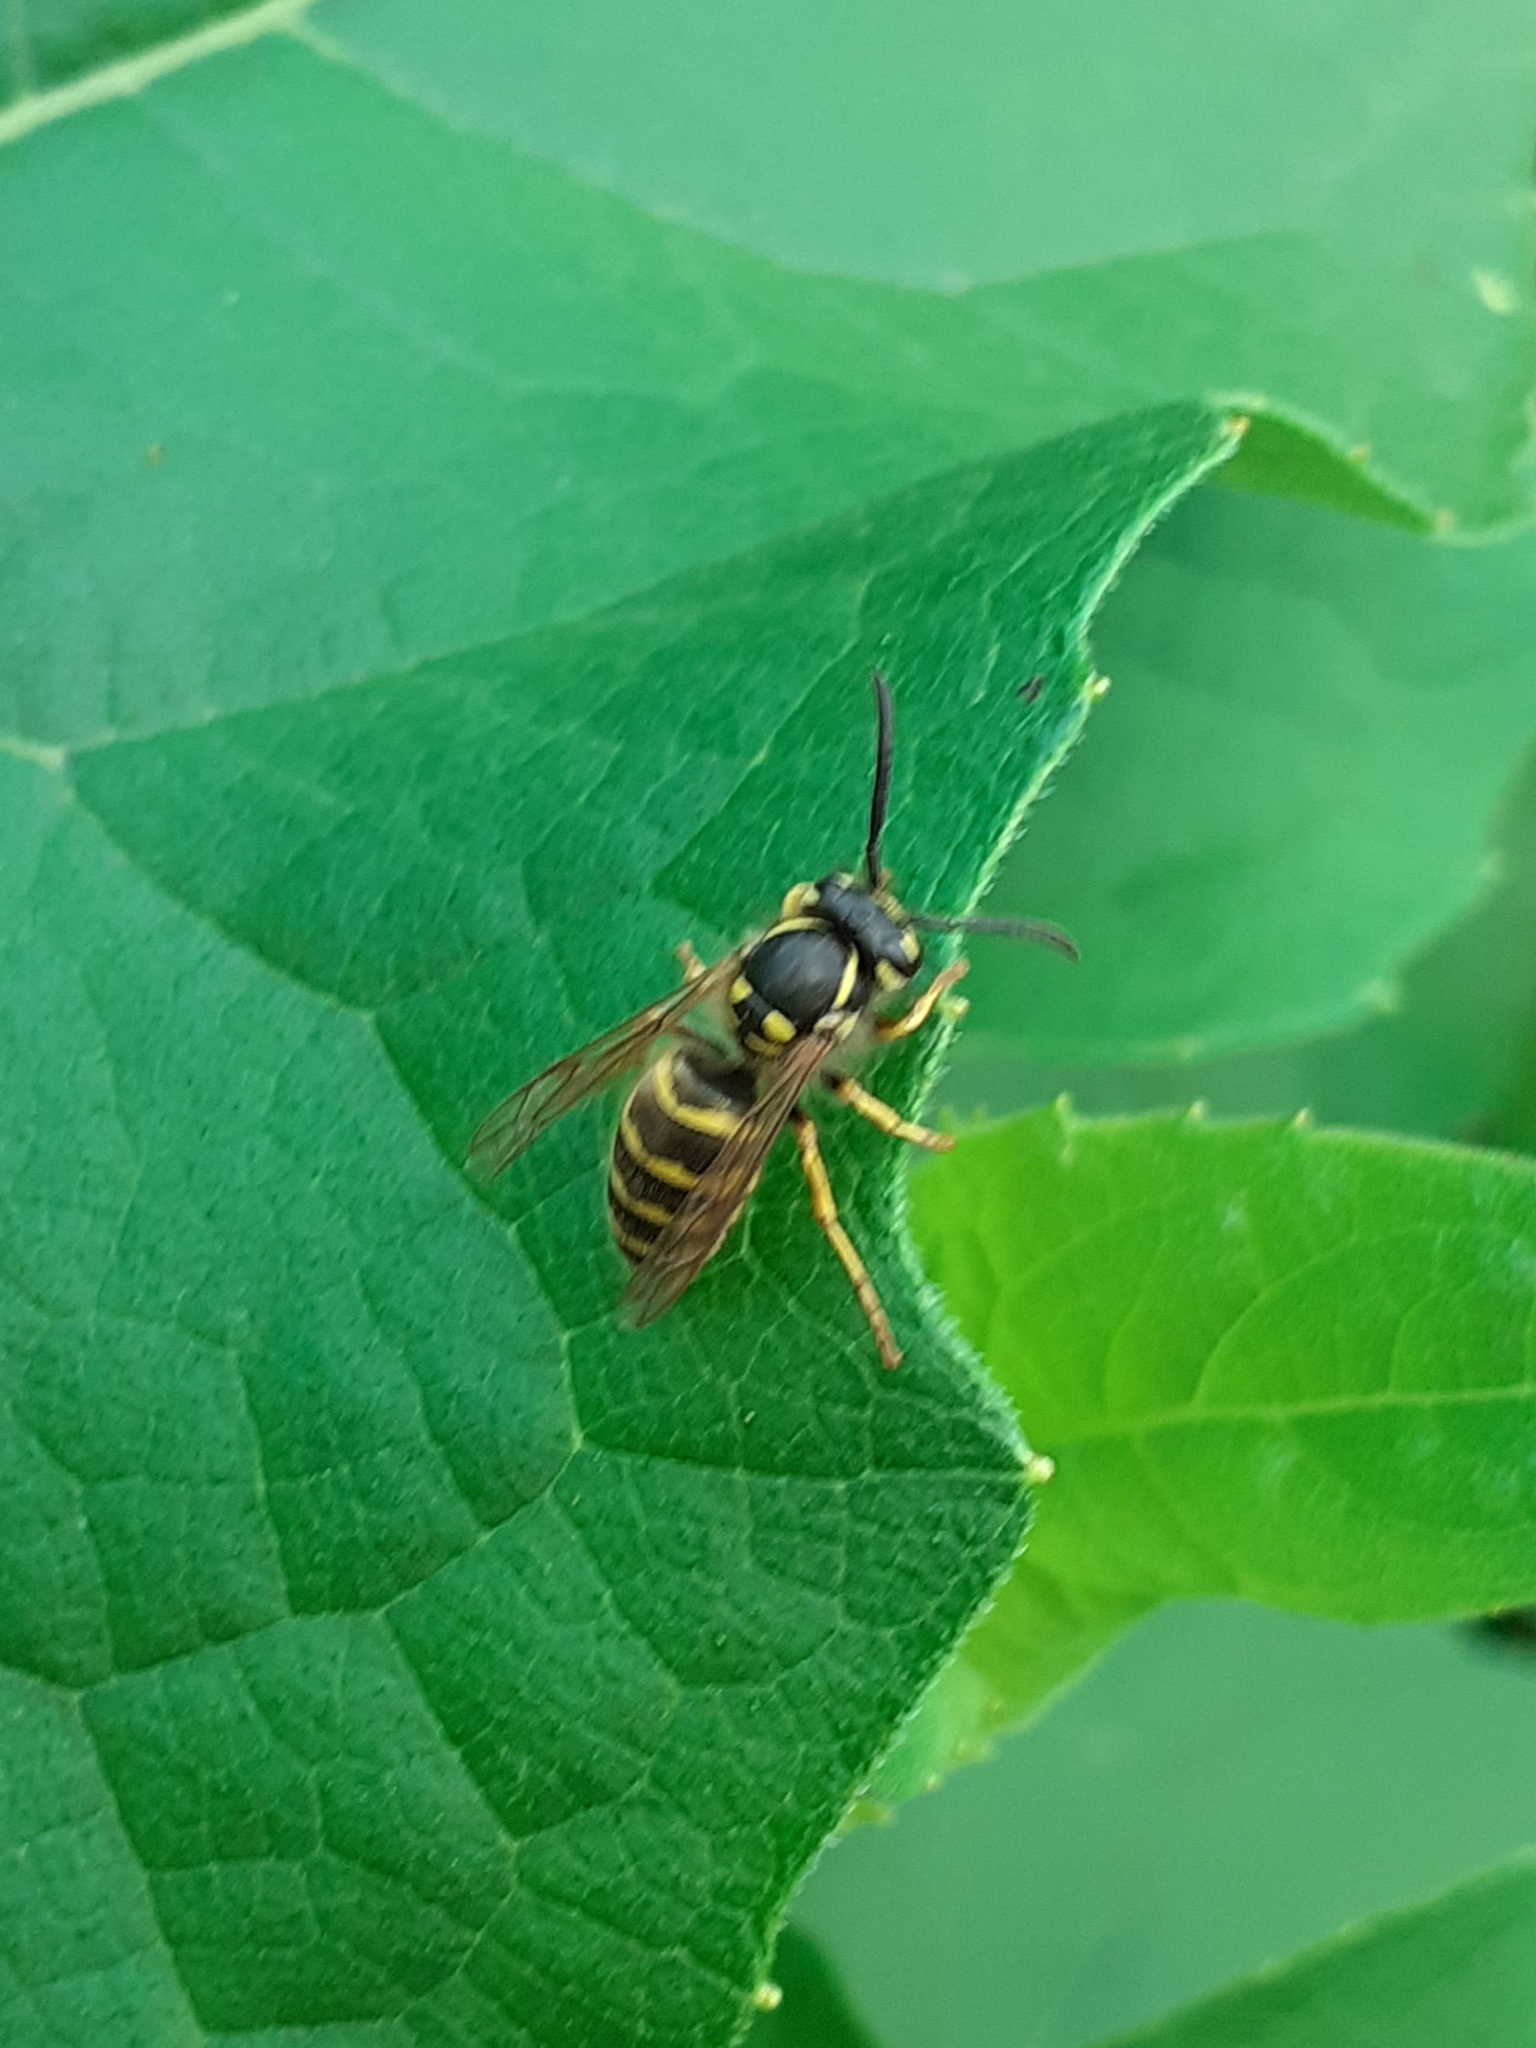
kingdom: Animalia
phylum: Arthropoda
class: Insecta
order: Hymenoptera
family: Vespidae
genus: Vespula
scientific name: Vespula vulgaris
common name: Common wasp
